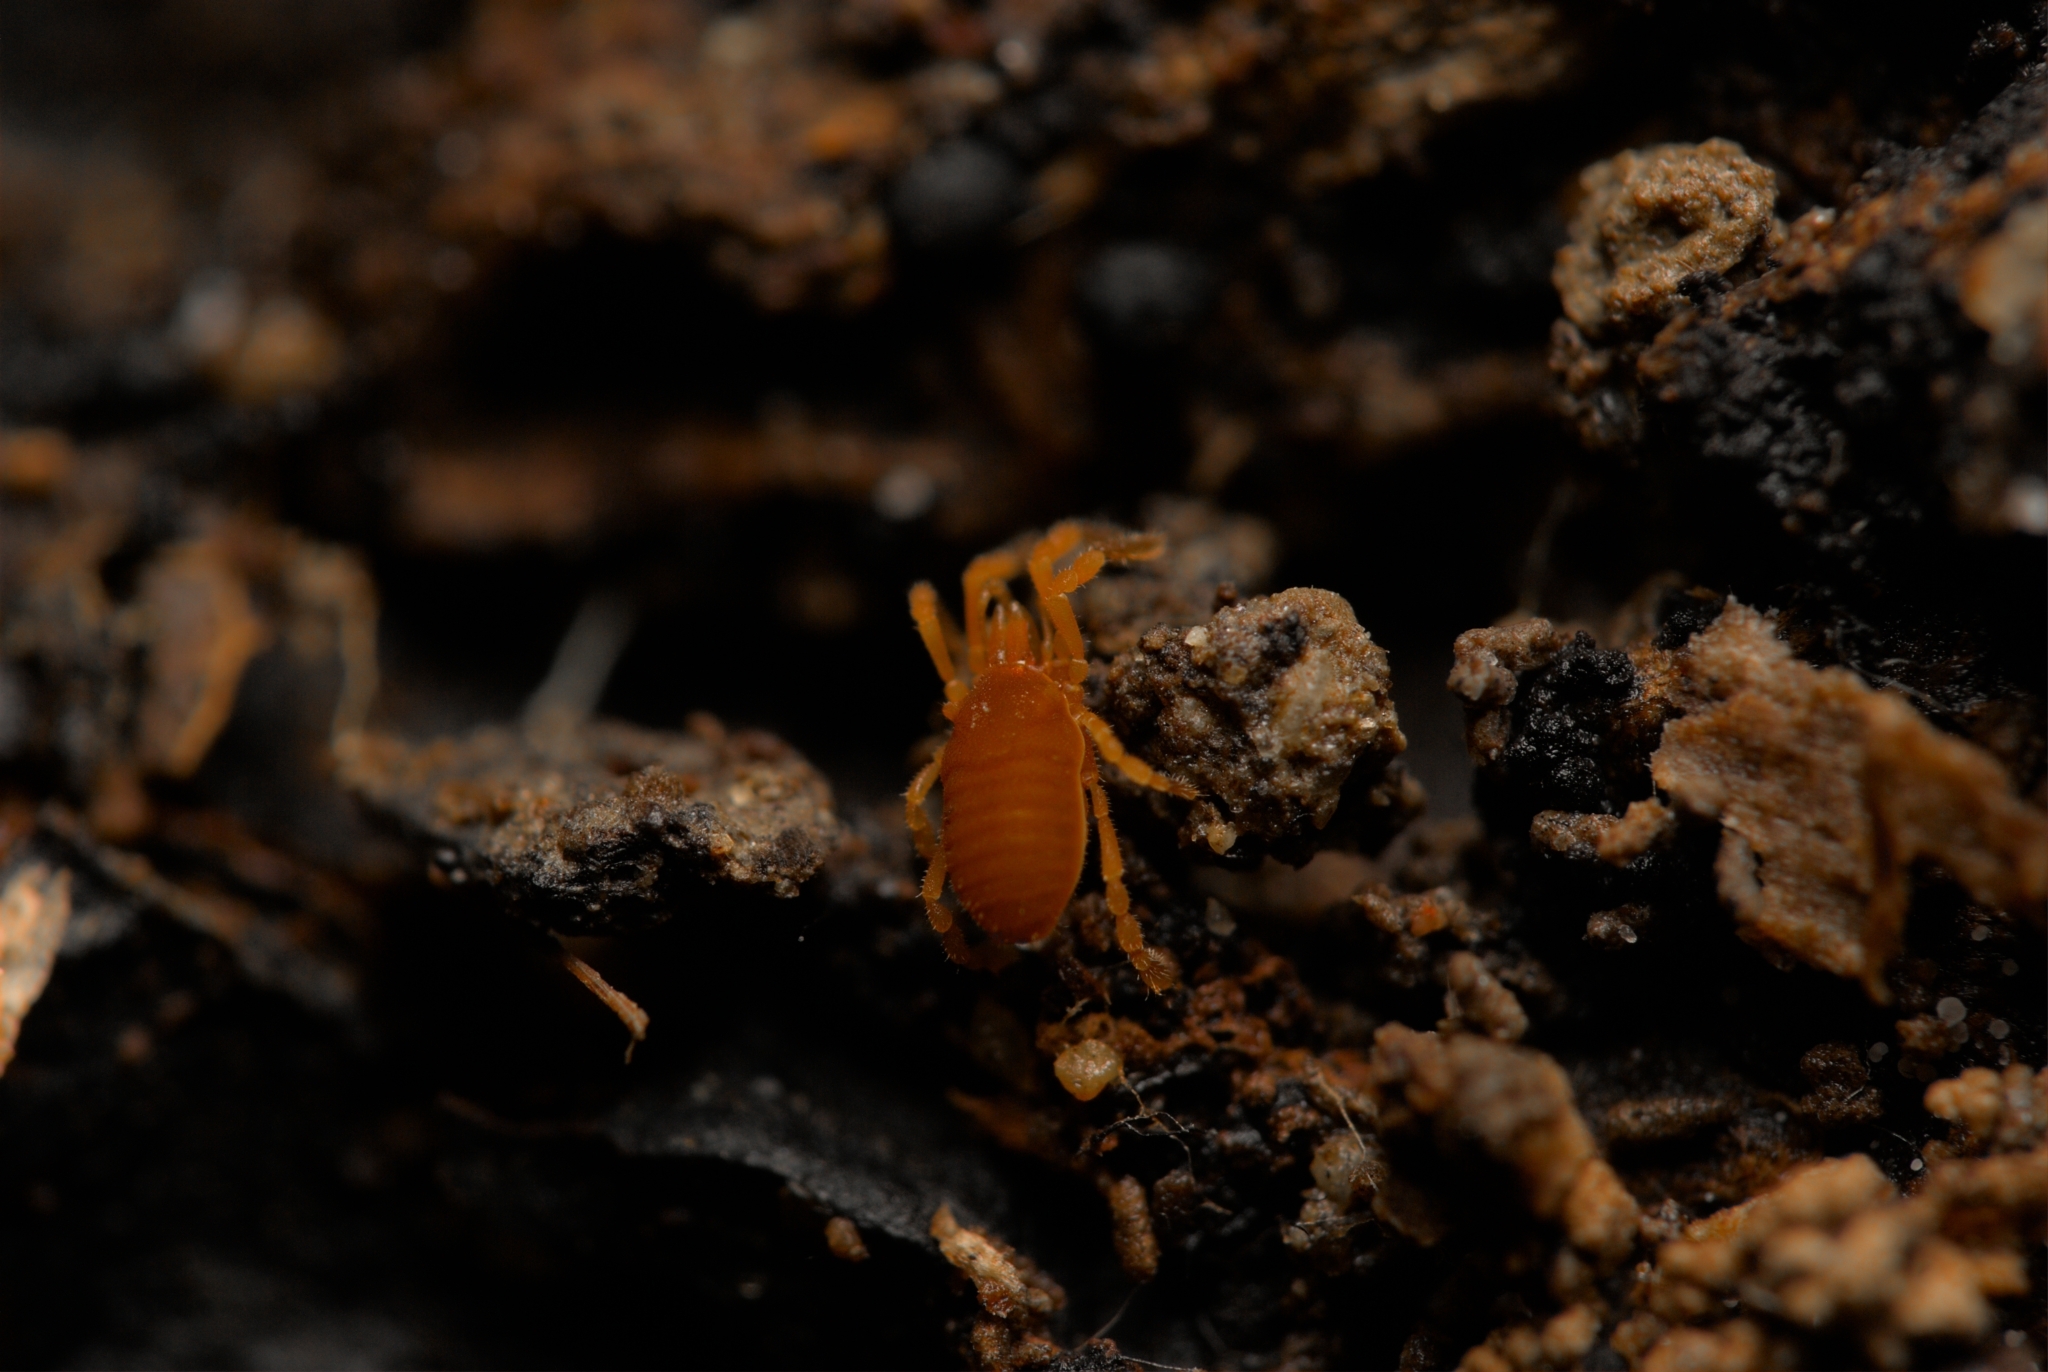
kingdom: Animalia
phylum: Arthropoda
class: Arachnida
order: Opiliones
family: Sironidae
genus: Siro
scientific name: Siro rubens
